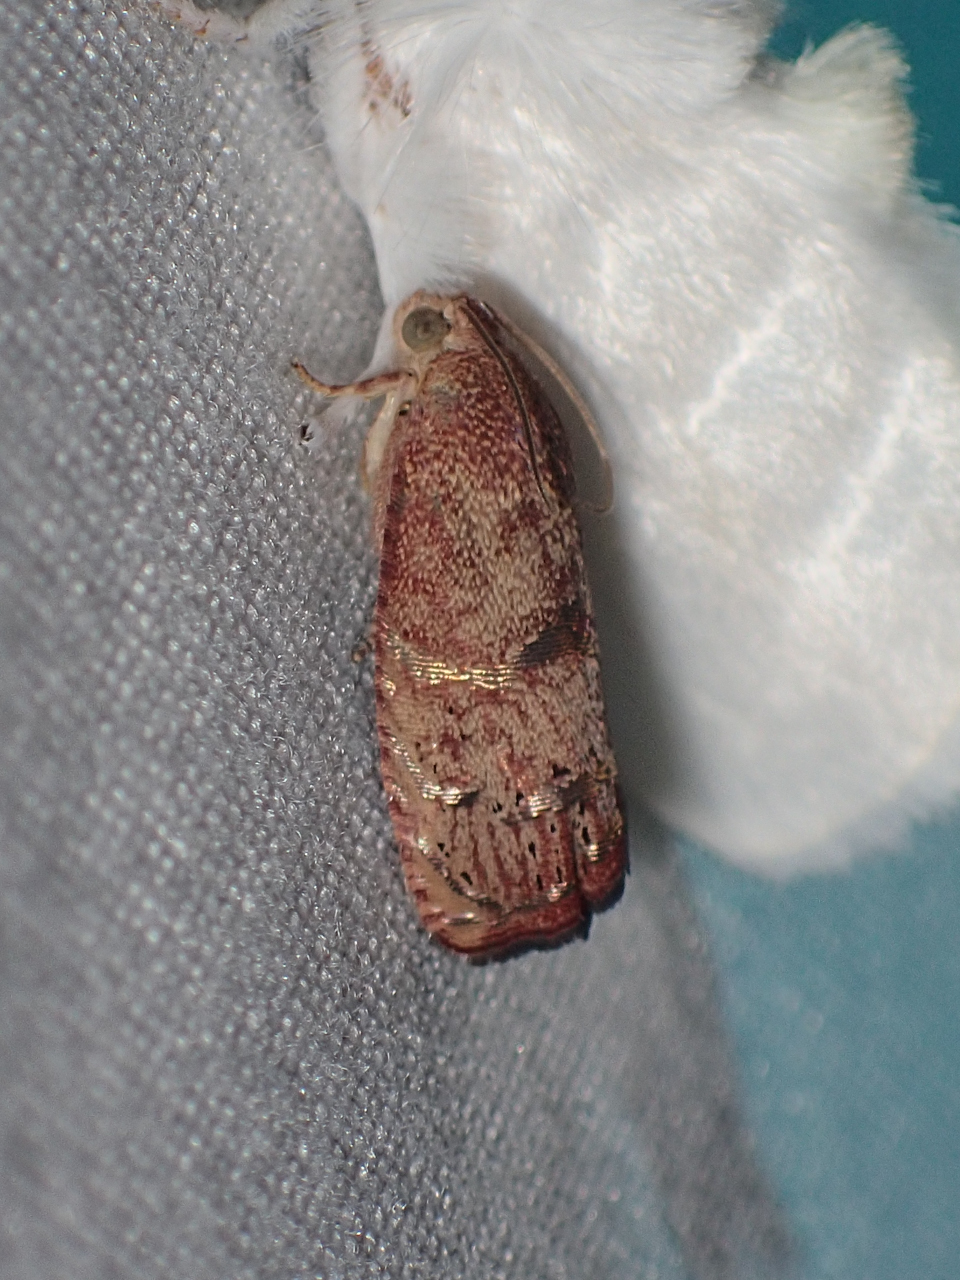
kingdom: Animalia
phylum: Arthropoda
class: Insecta
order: Lepidoptera
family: Tortricidae
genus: Cydia
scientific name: Cydia latiferreana
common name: Filbertworm moth
